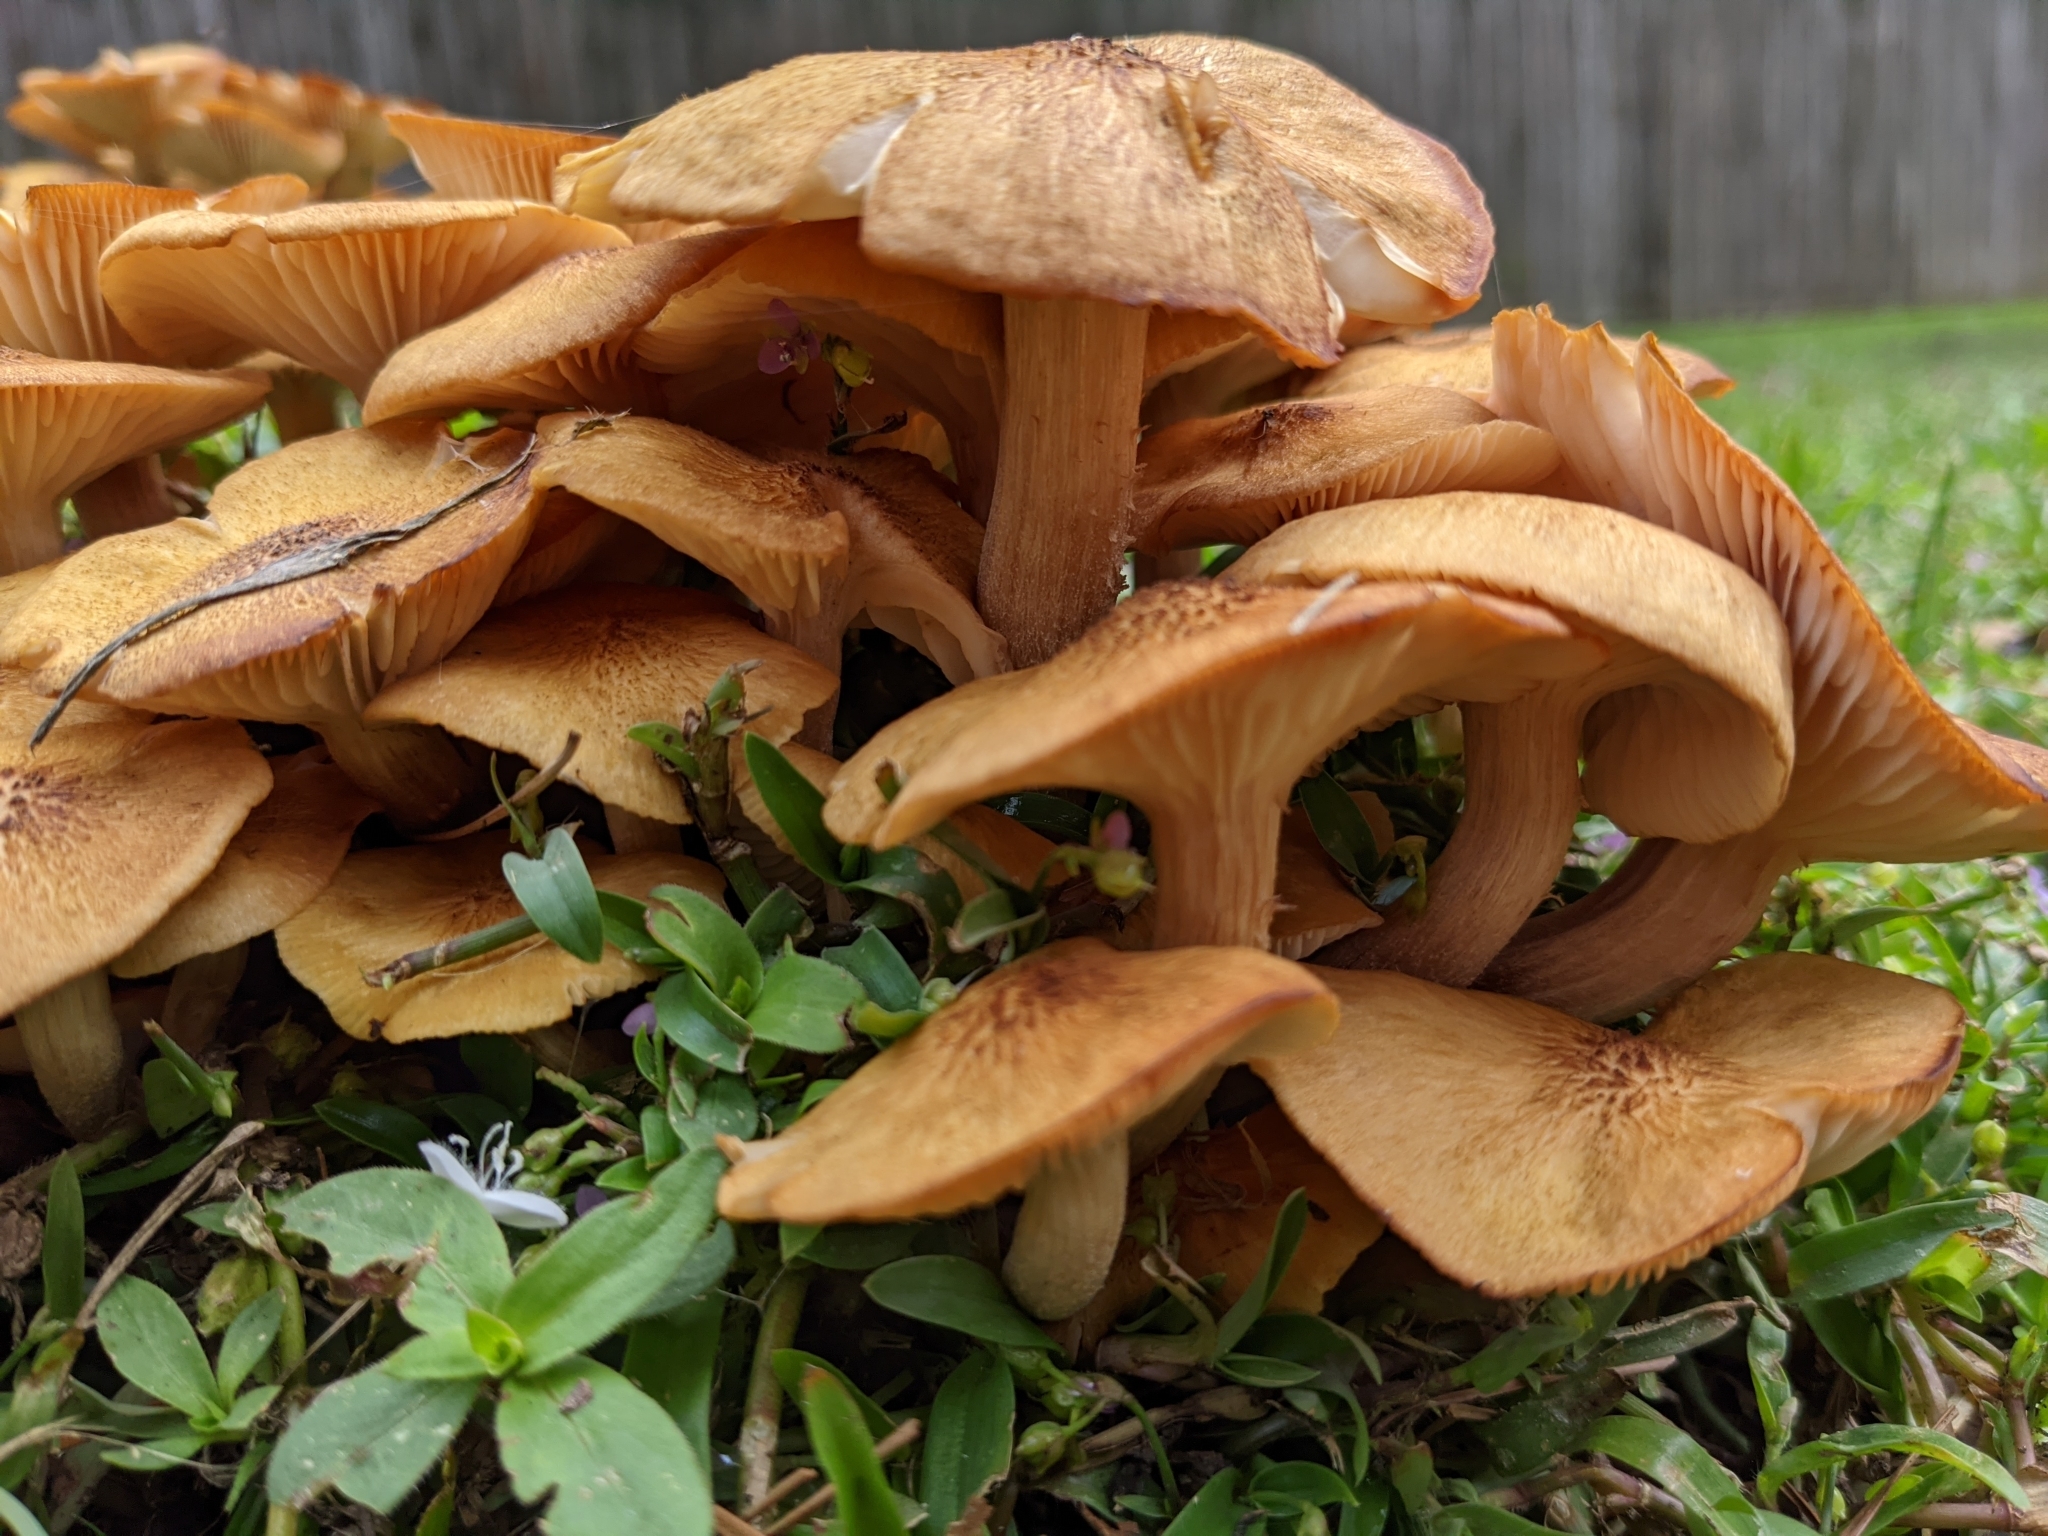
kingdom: Fungi
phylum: Basidiomycota
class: Agaricomycetes
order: Agaricales
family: Physalacriaceae
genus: Desarmillaria
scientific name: Desarmillaria caespitosa
